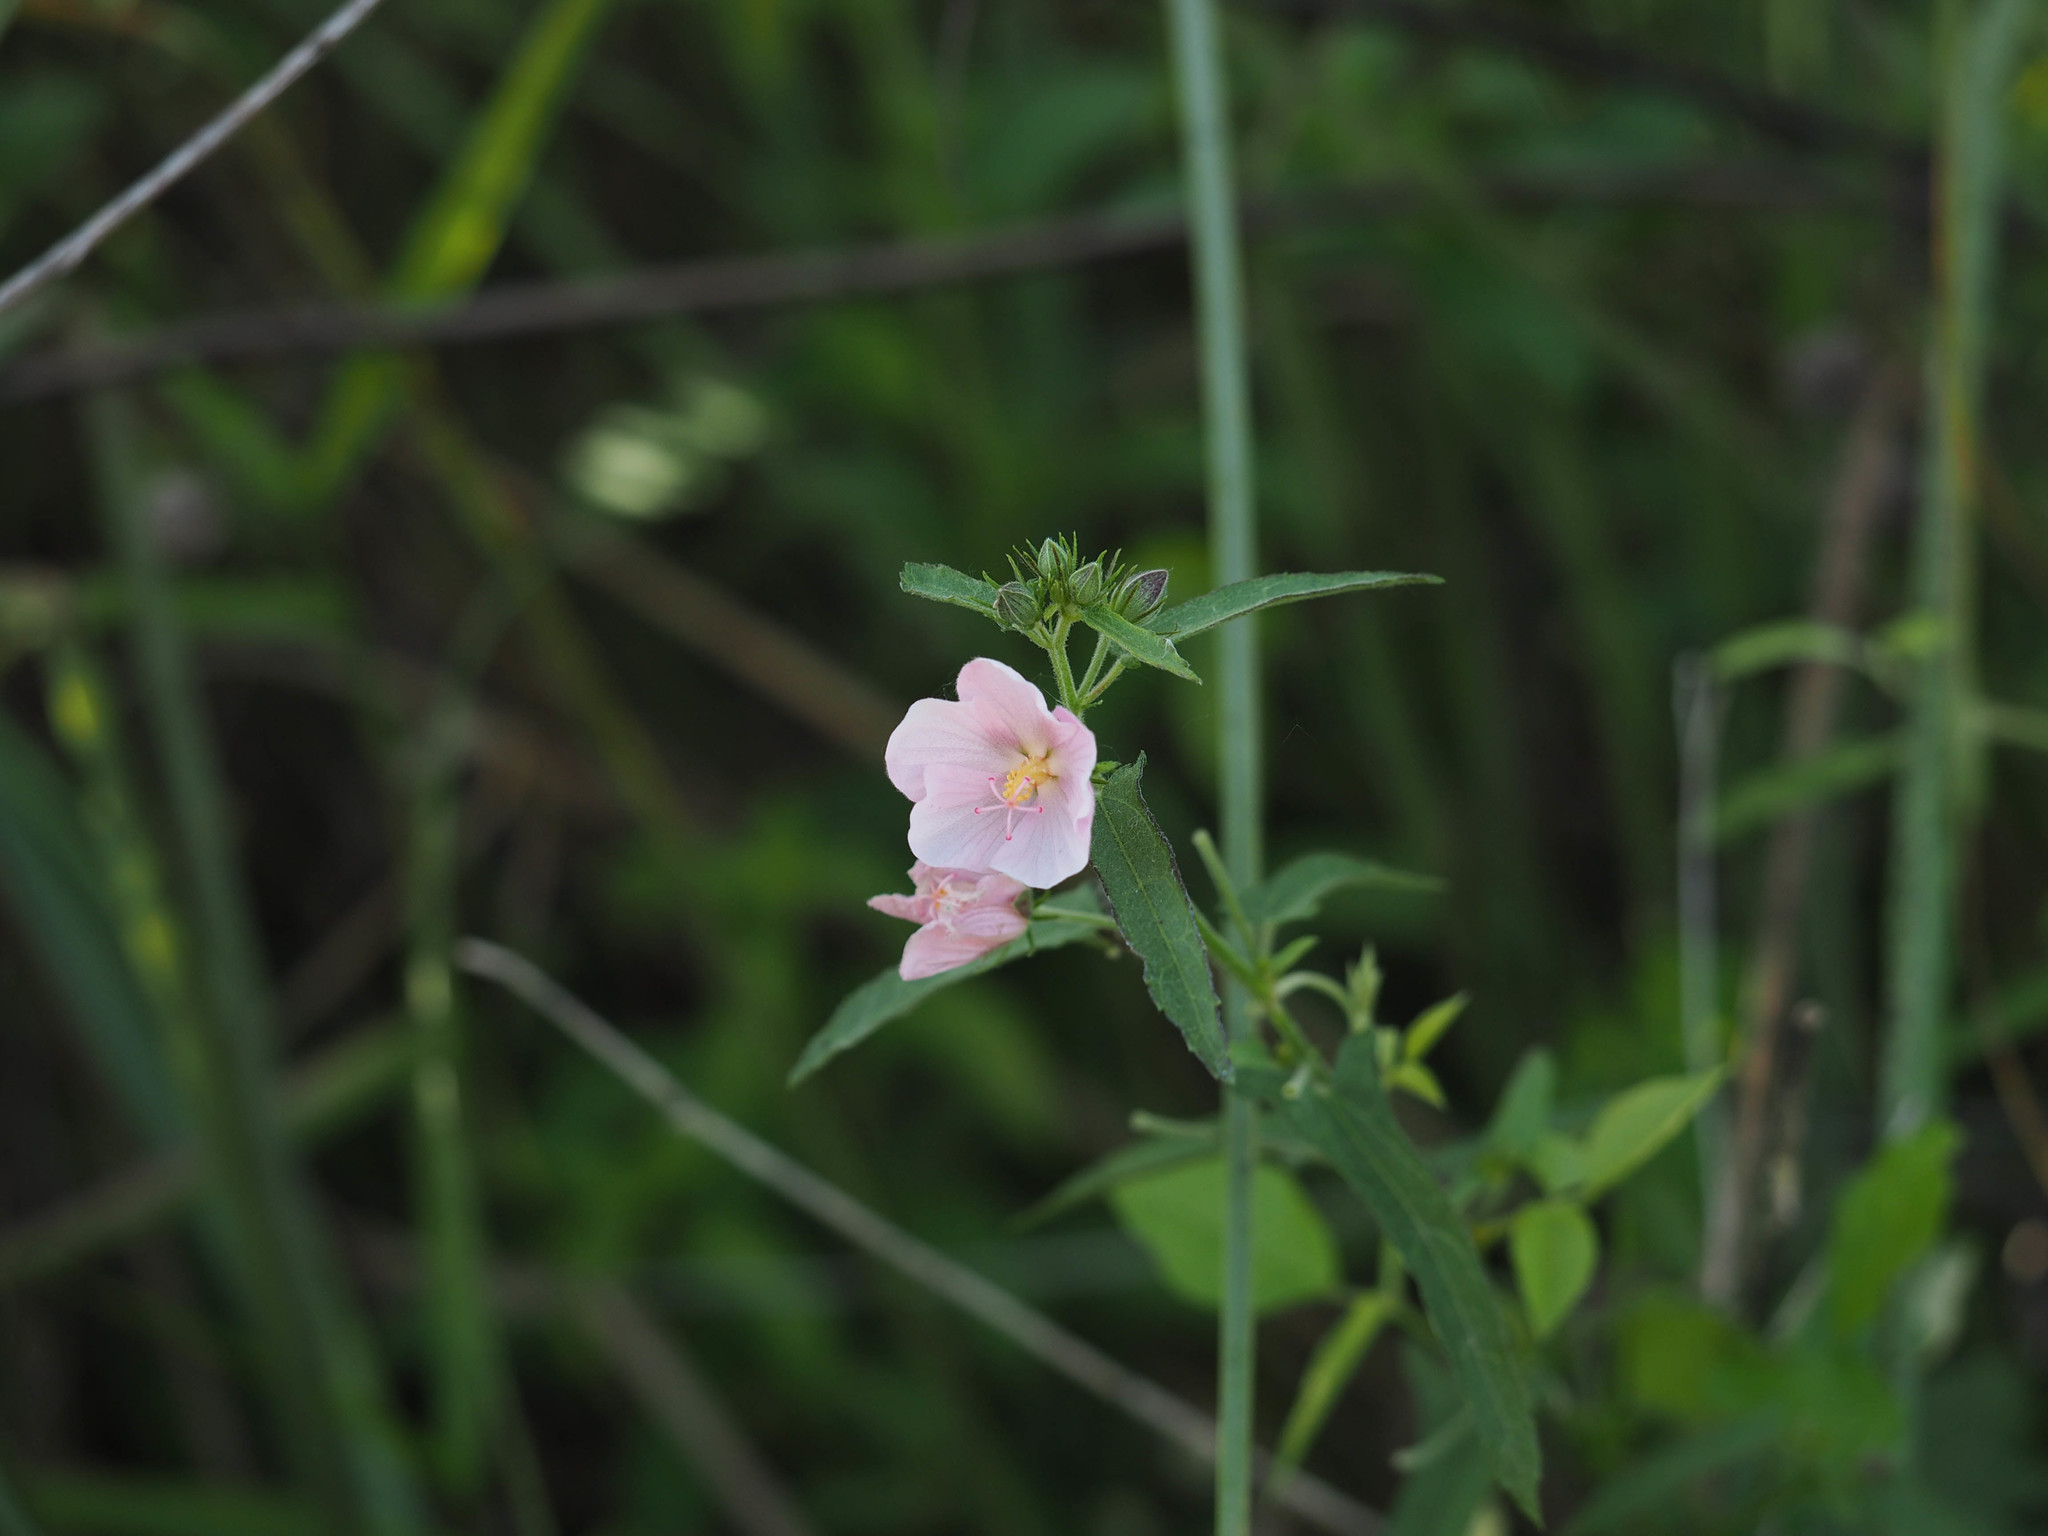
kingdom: Plantae
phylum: Tracheophyta
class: Magnoliopsida
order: Malvales
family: Malvaceae
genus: Kosteletzkya
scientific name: Kosteletzkya pentacarpos
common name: Virginia saltmarsh mallow
